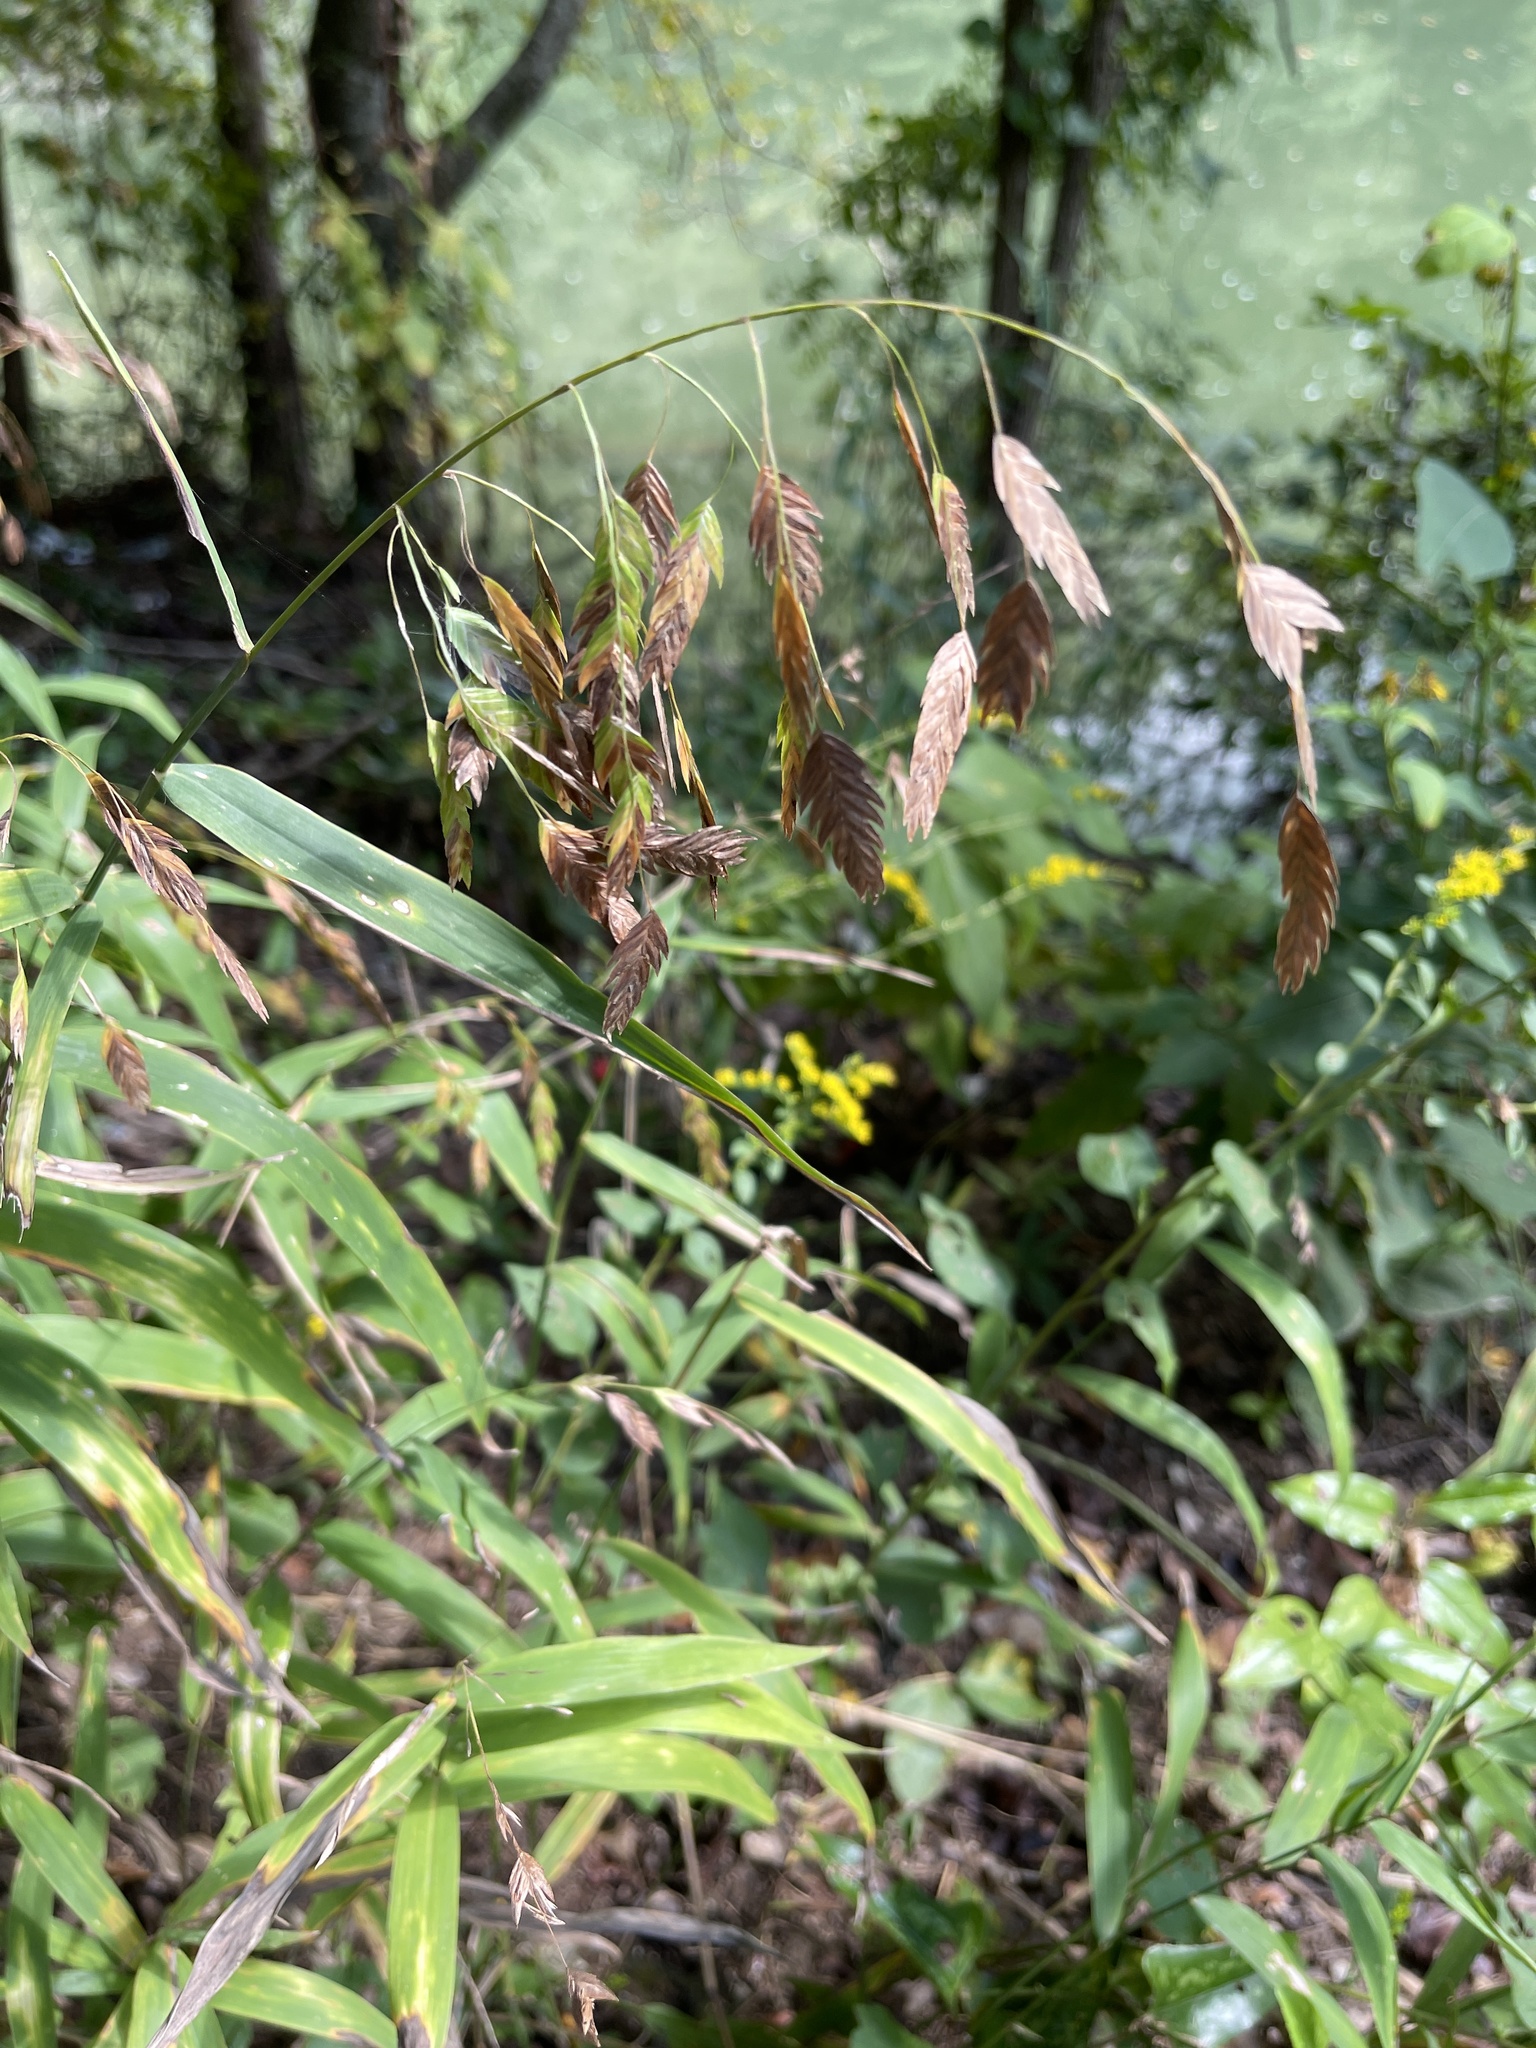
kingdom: Plantae
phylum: Tracheophyta
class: Liliopsida
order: Poales
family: Poaceae
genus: Chasmanthium
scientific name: Chasmanthium latifolium
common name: Broad-leaved chasmanthium
